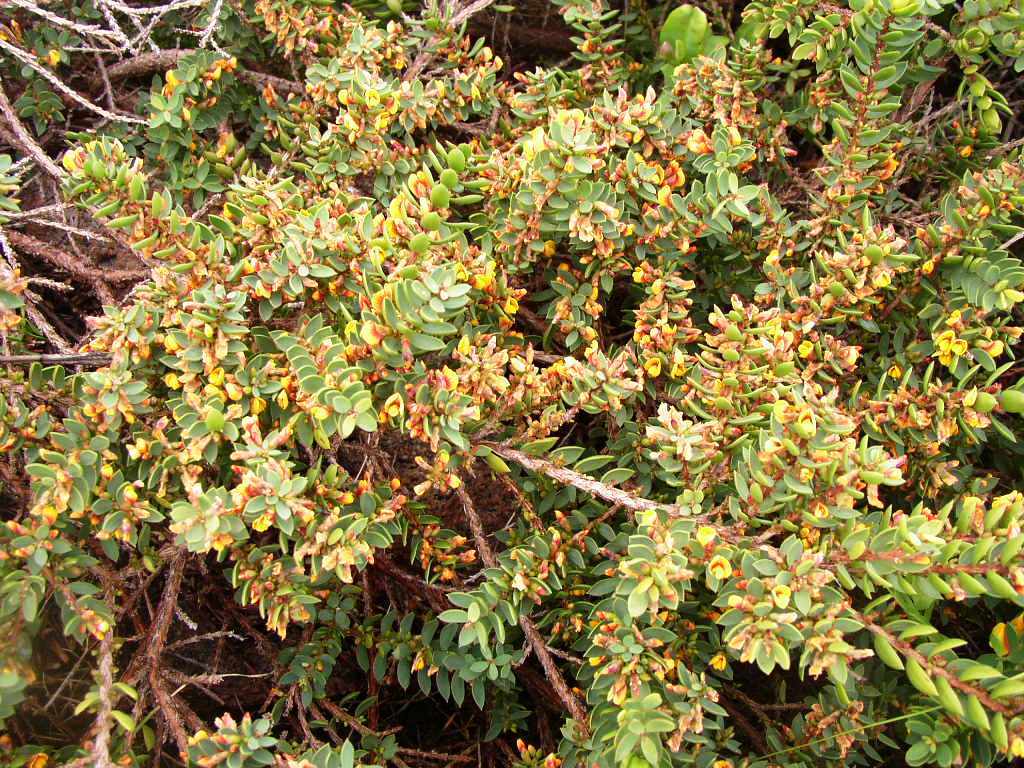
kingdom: Plantae
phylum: Tracheophyta
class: Magnoliopsida
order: Fabales
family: Fabaceae
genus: Eutaxia
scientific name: Eutaxia myrtifolia
